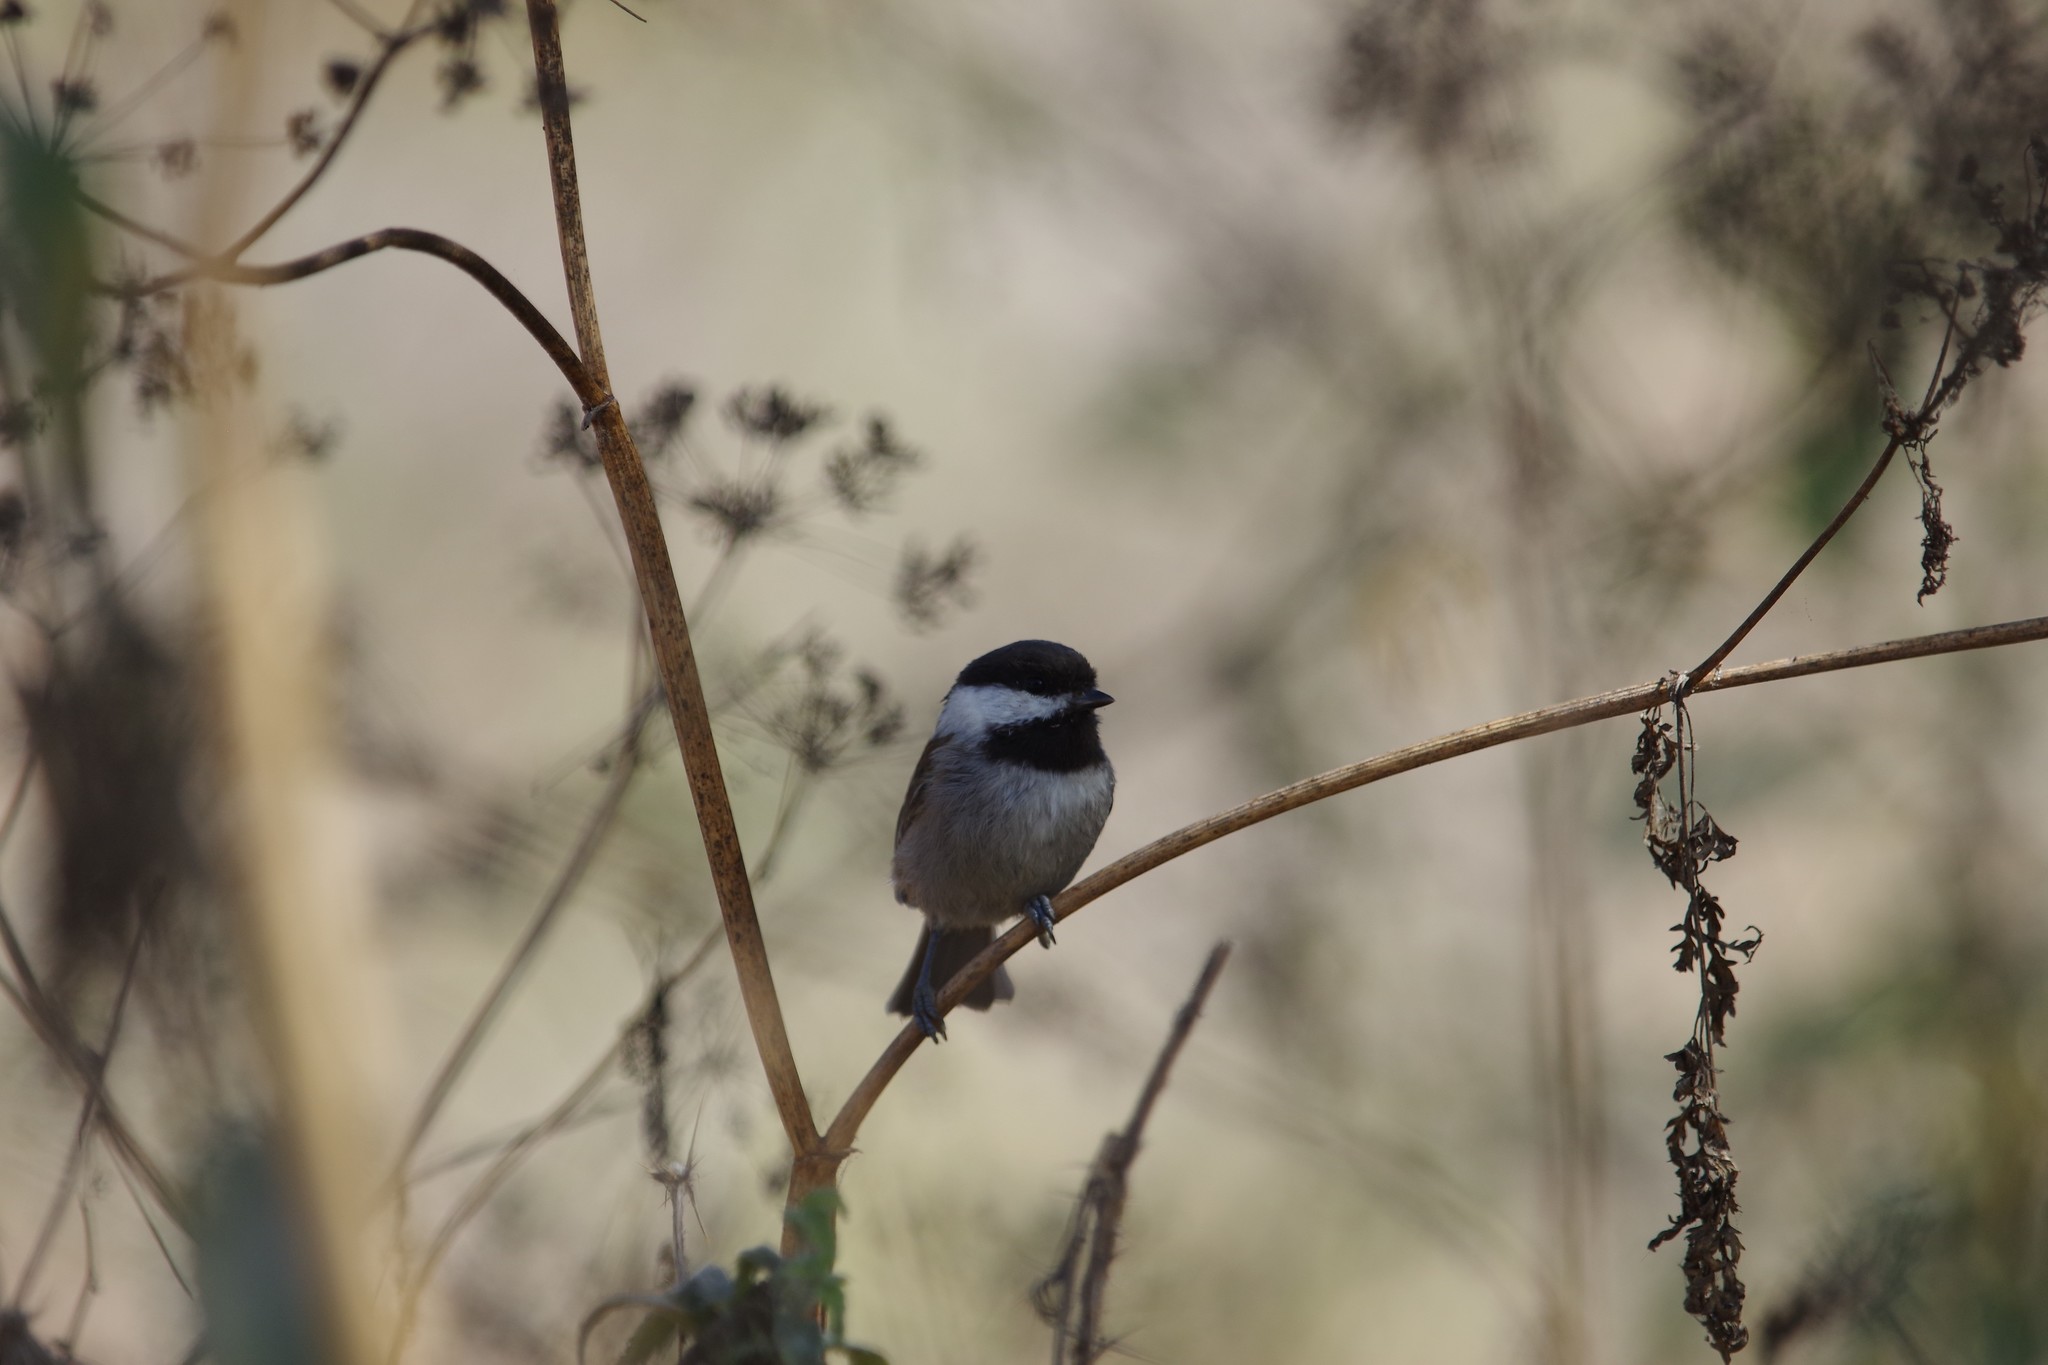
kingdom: Animalia
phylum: Chordata
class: Aves
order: Passeriformes
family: Paridae
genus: Poecile
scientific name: Poecile rufescens
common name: Chestnut-backed chickadee
